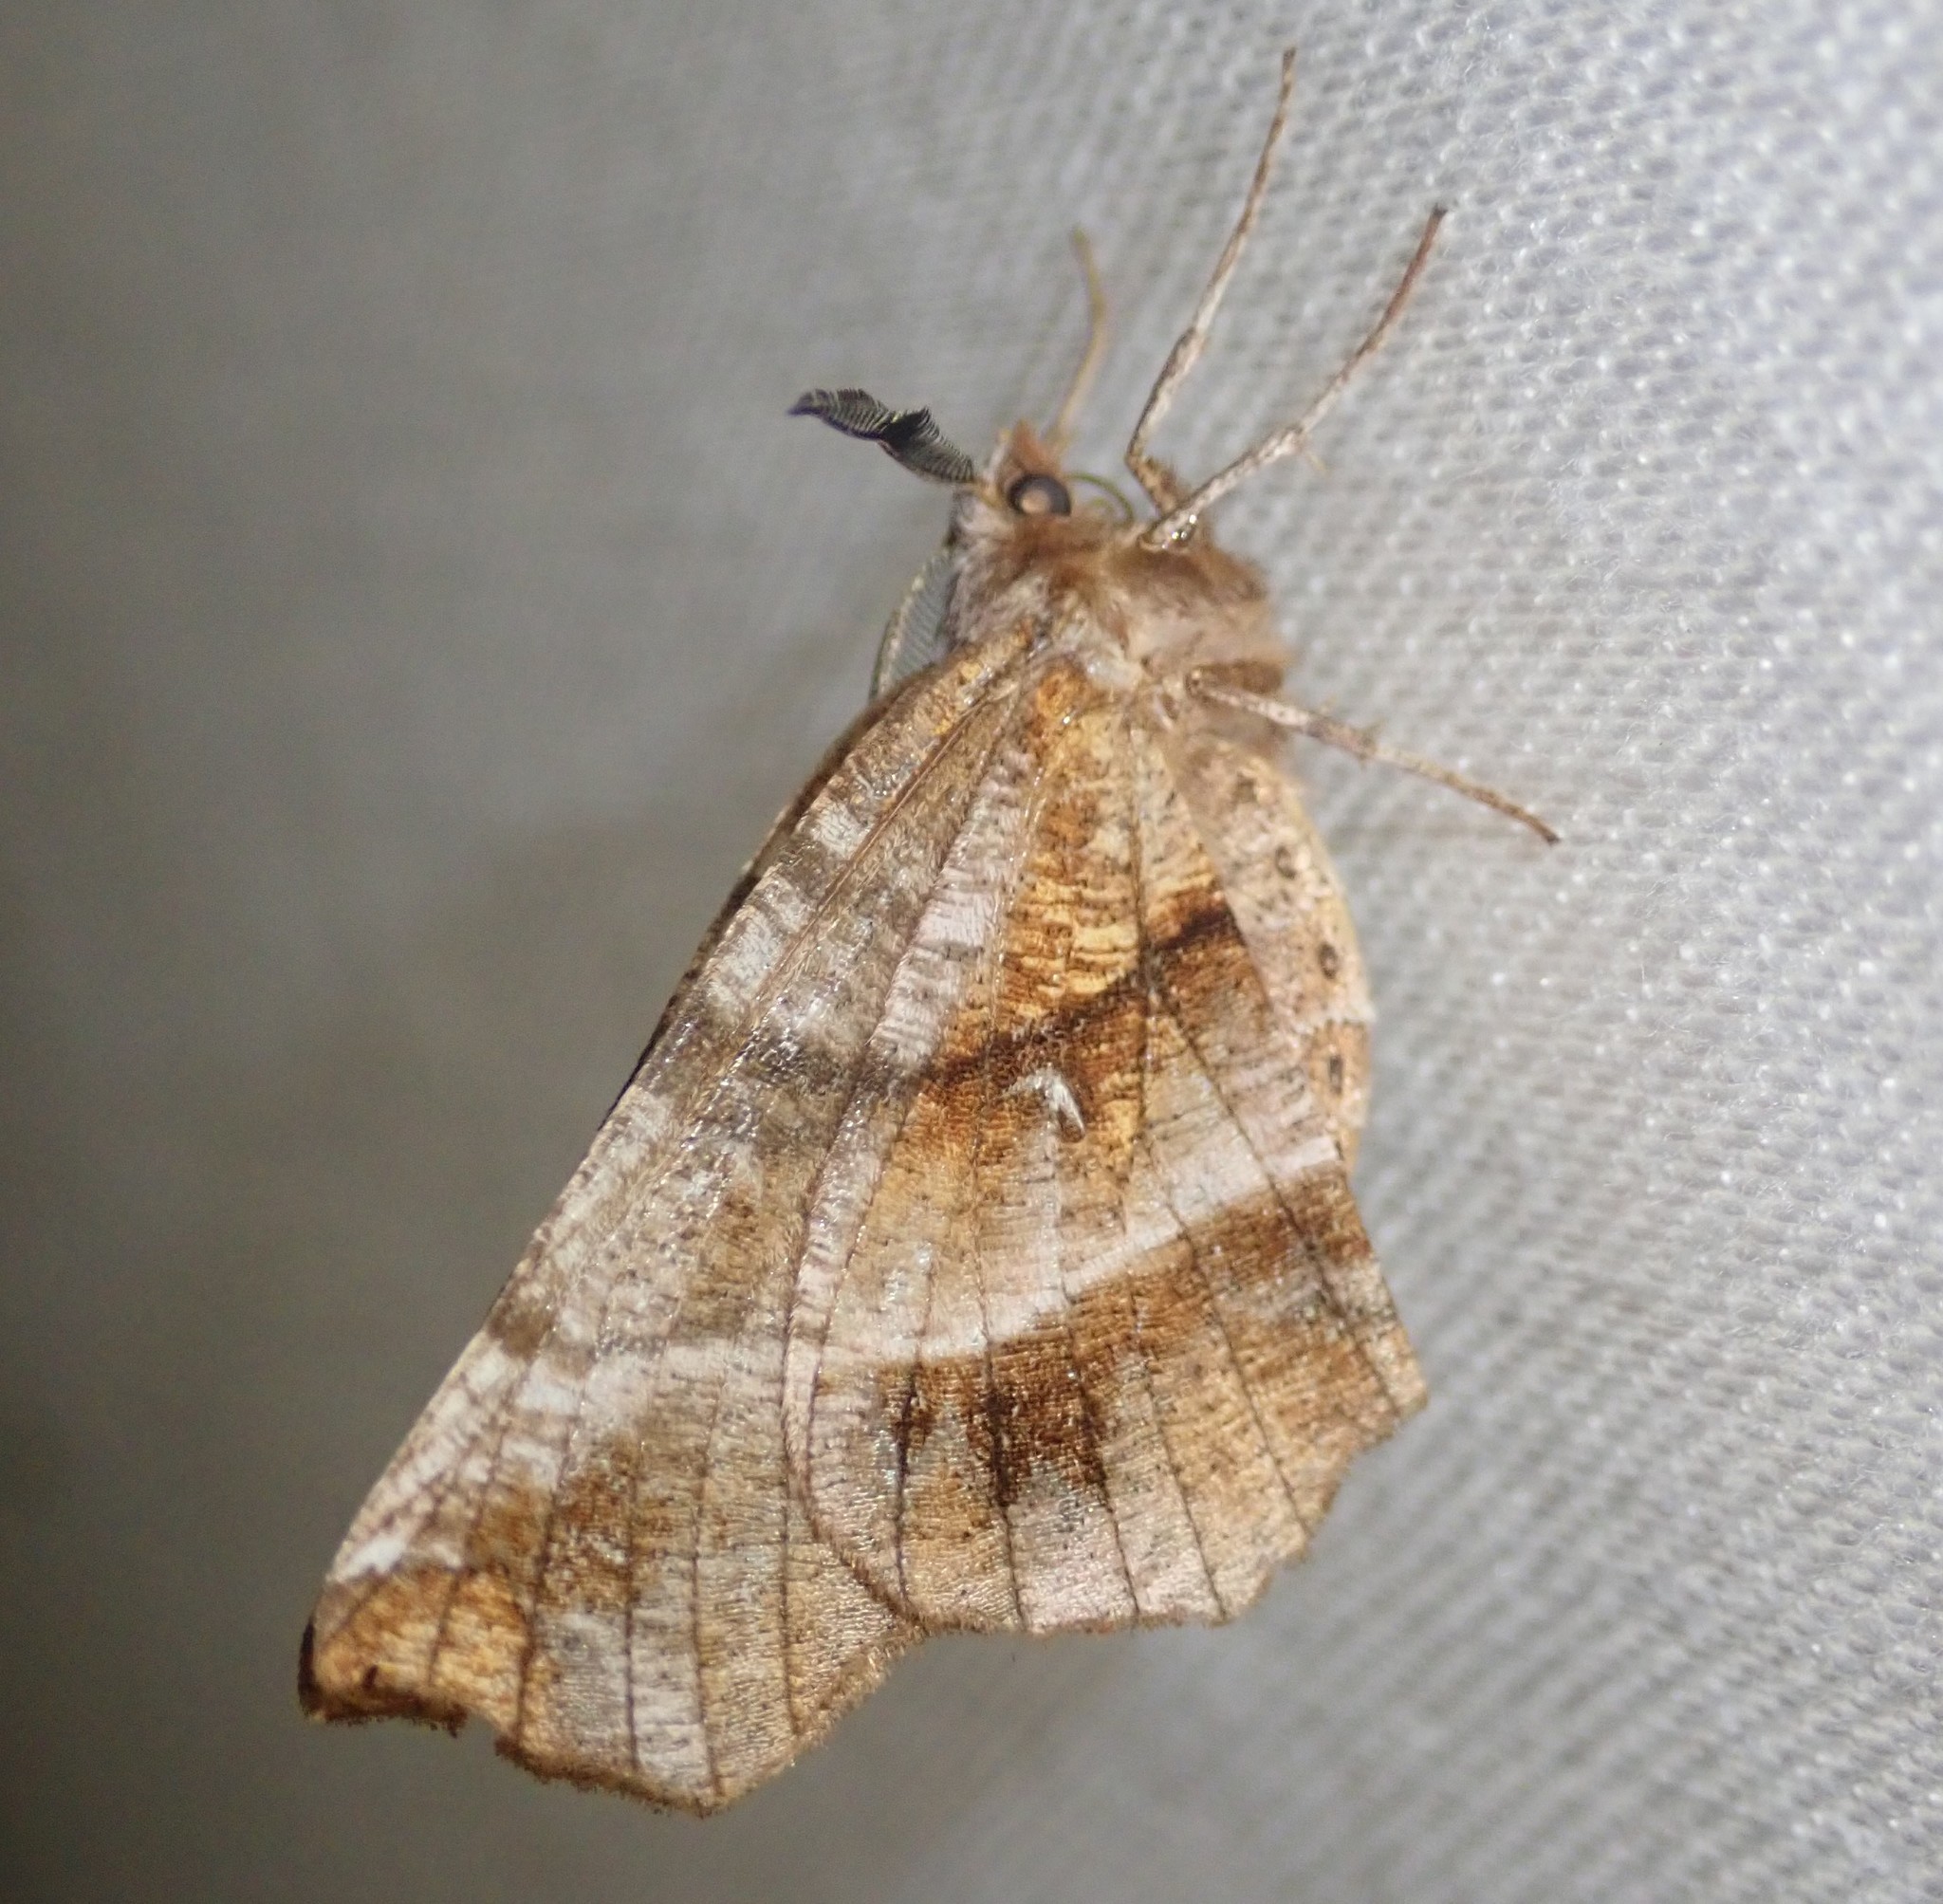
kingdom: Animalia
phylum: Arthropoda
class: Insecta
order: Lepidoptera
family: Geometridae
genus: Selenia
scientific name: Selenia dentaria
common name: Early thorn
